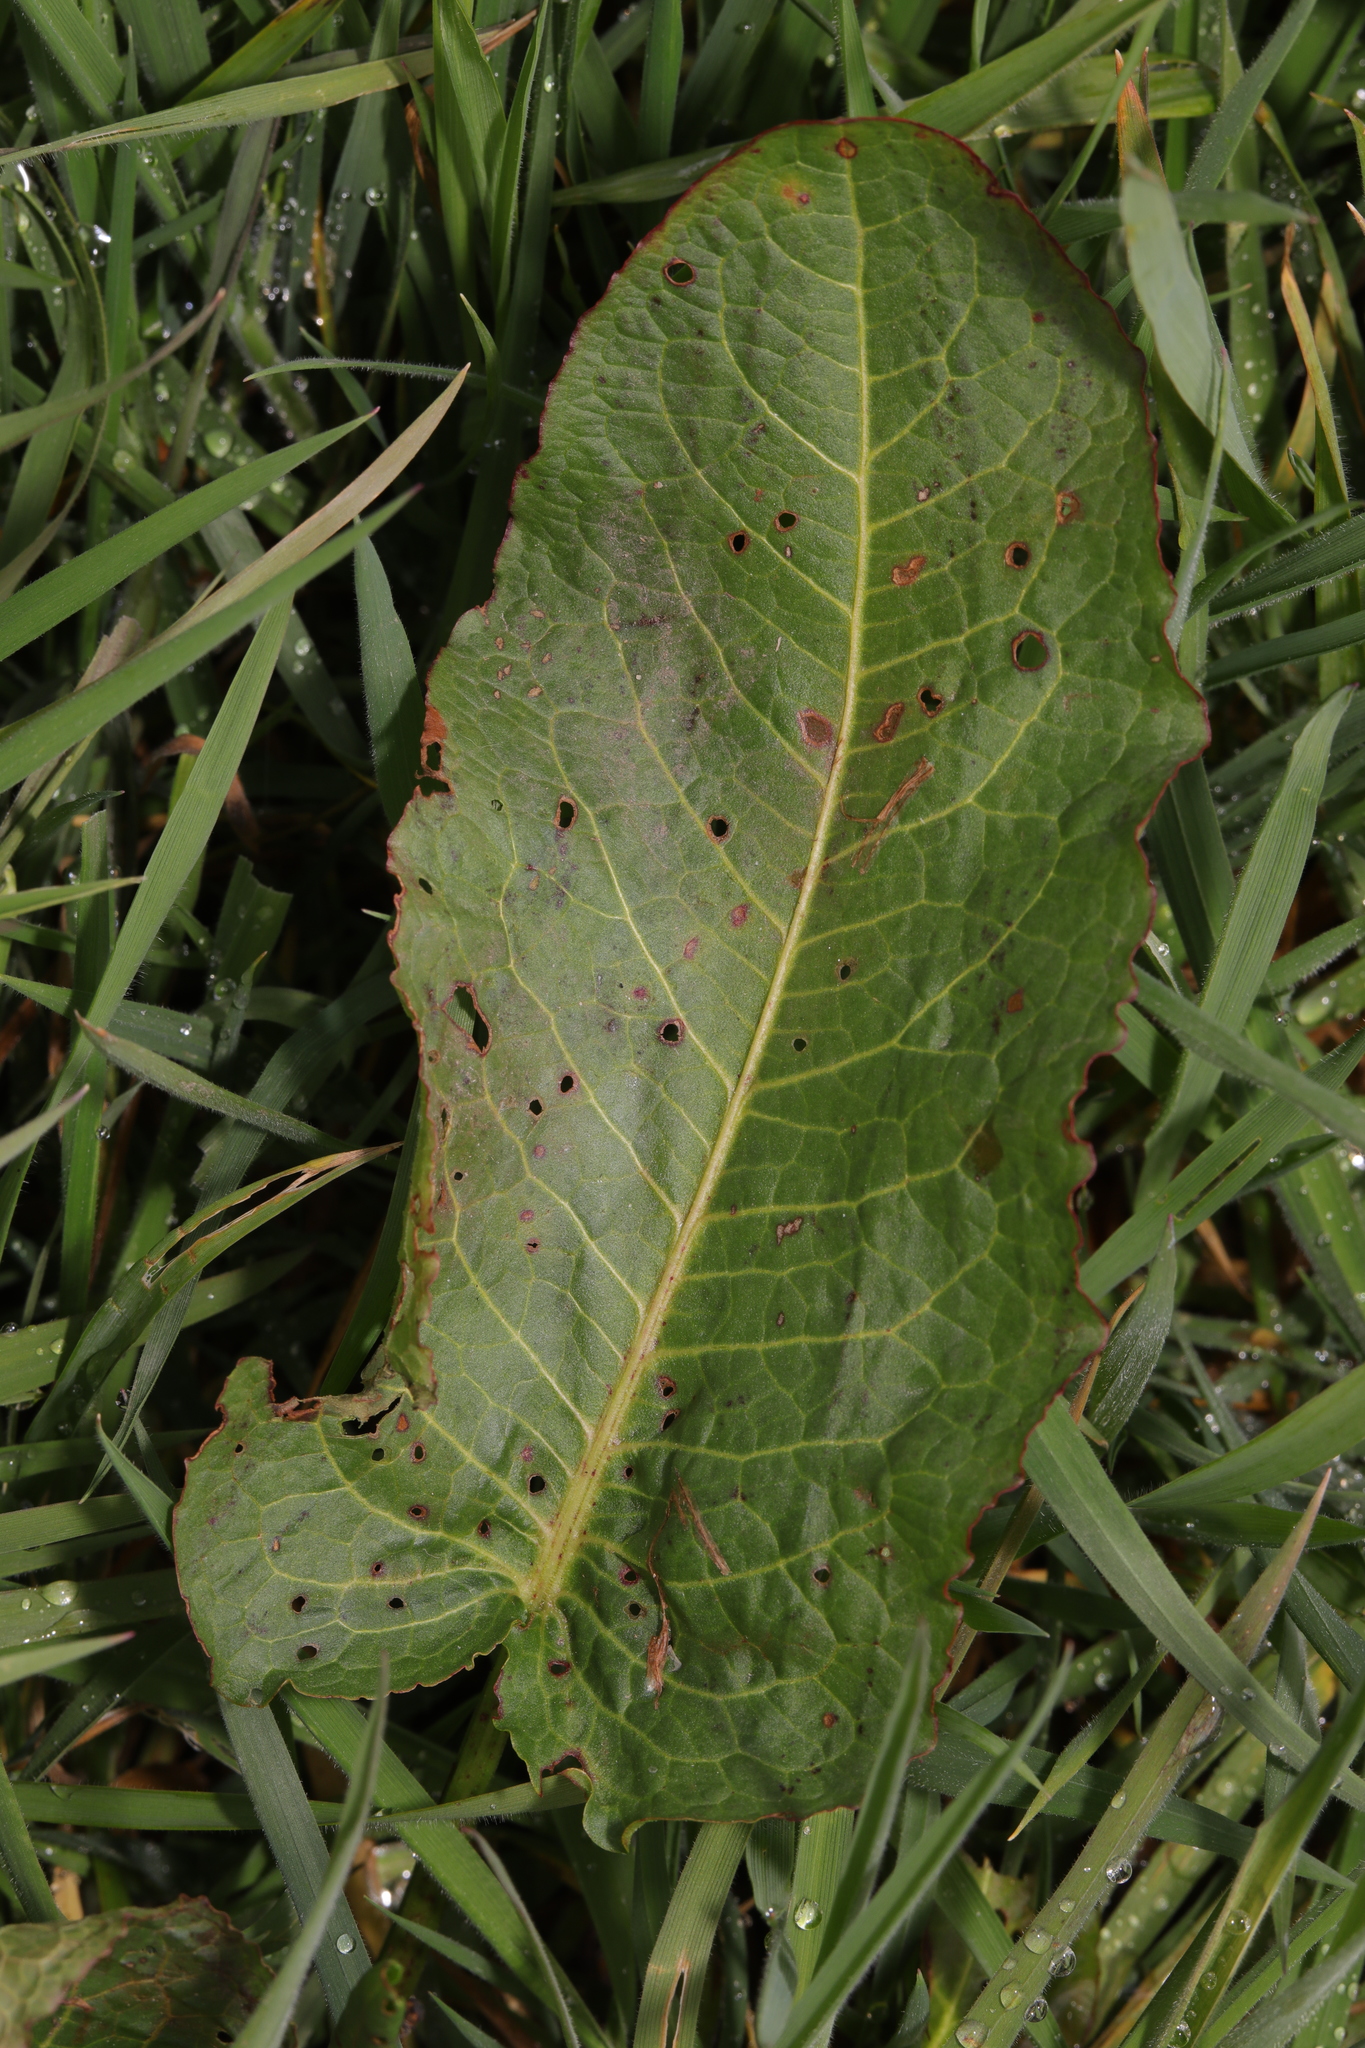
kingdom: Plantae
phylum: Tracheophyta
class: Magnoliopsida
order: Caryophyllales
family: Polygonaceae
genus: Rumex
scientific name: Rumex obtusifolius
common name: Bitter dock
